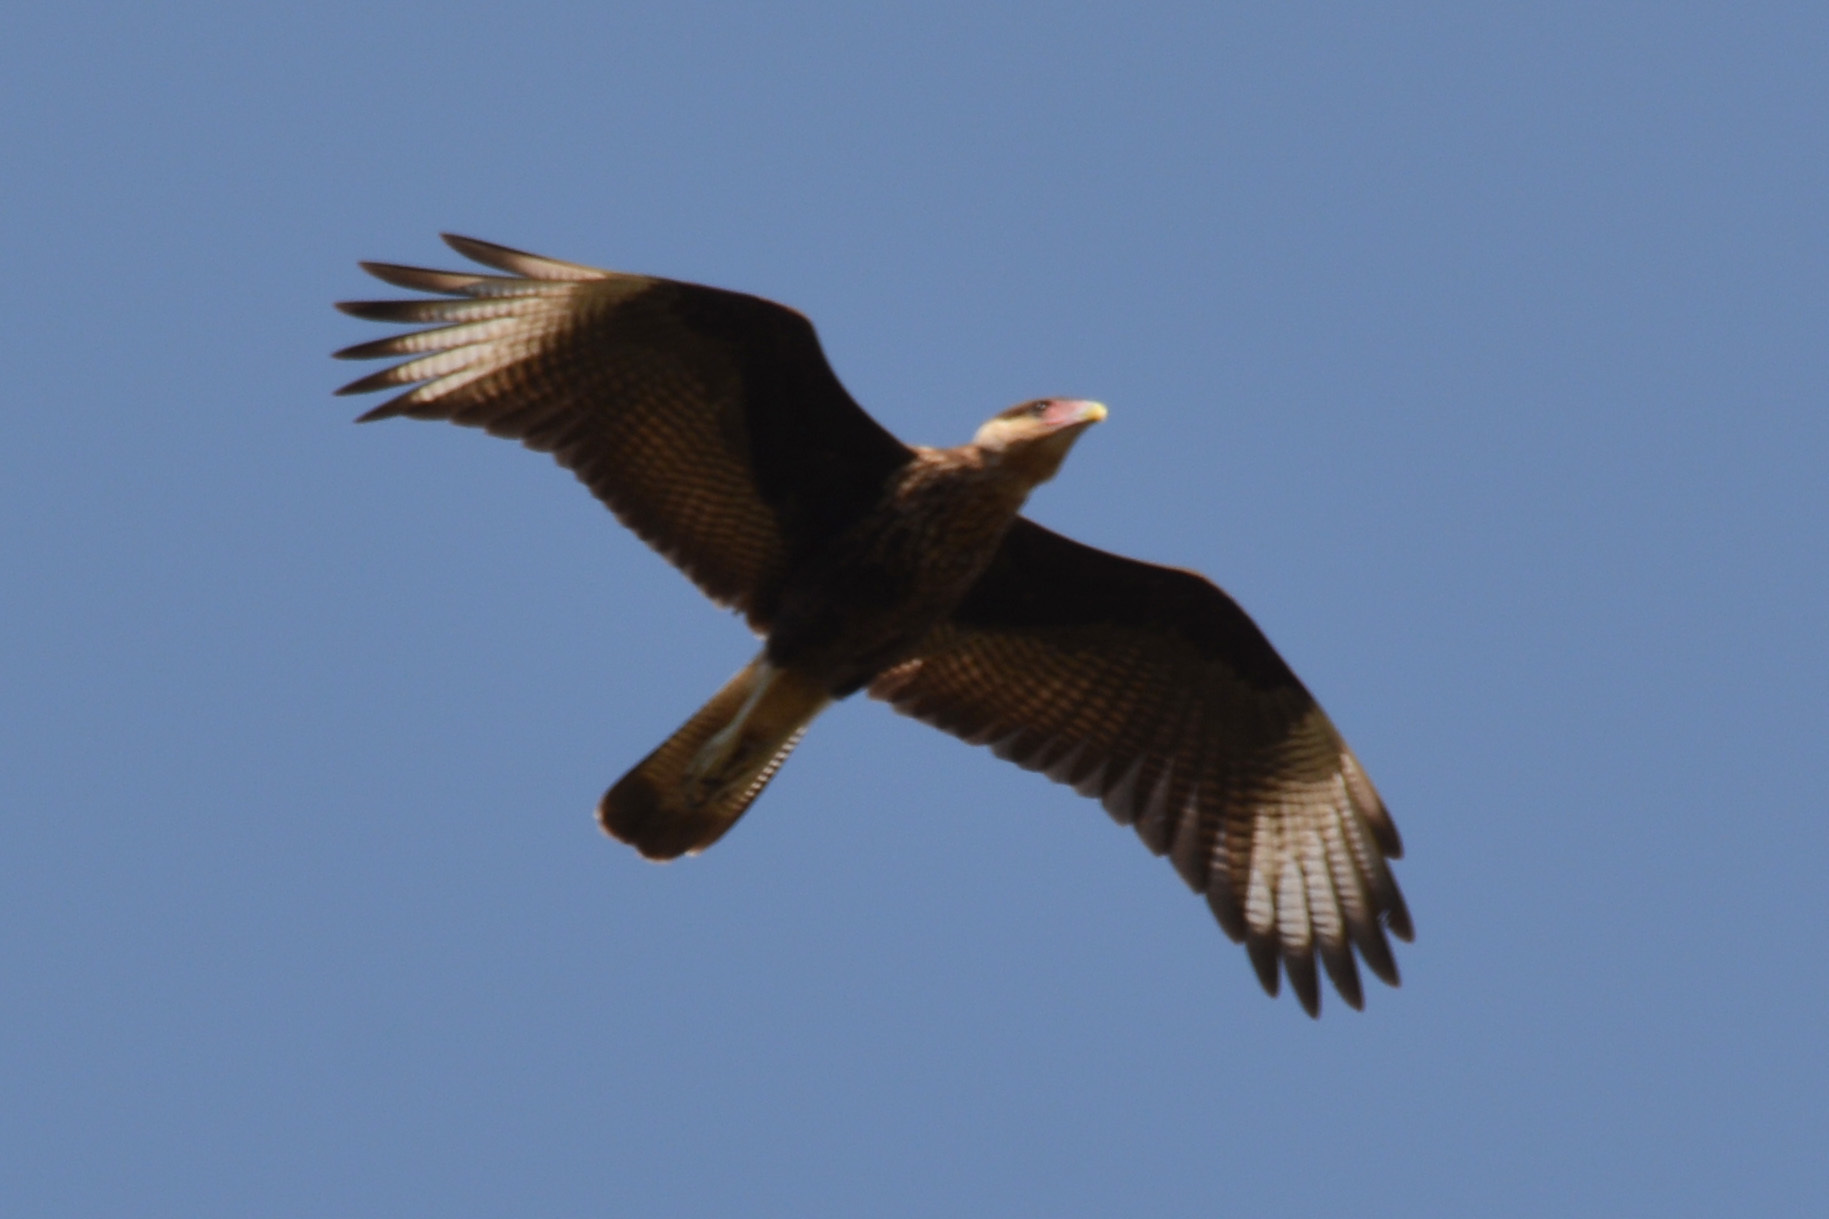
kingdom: Animalia
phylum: Chordata
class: Aves
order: Falconiformes
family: Falconidae
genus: Caracara
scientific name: Caracara plancus
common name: Southern caracara
